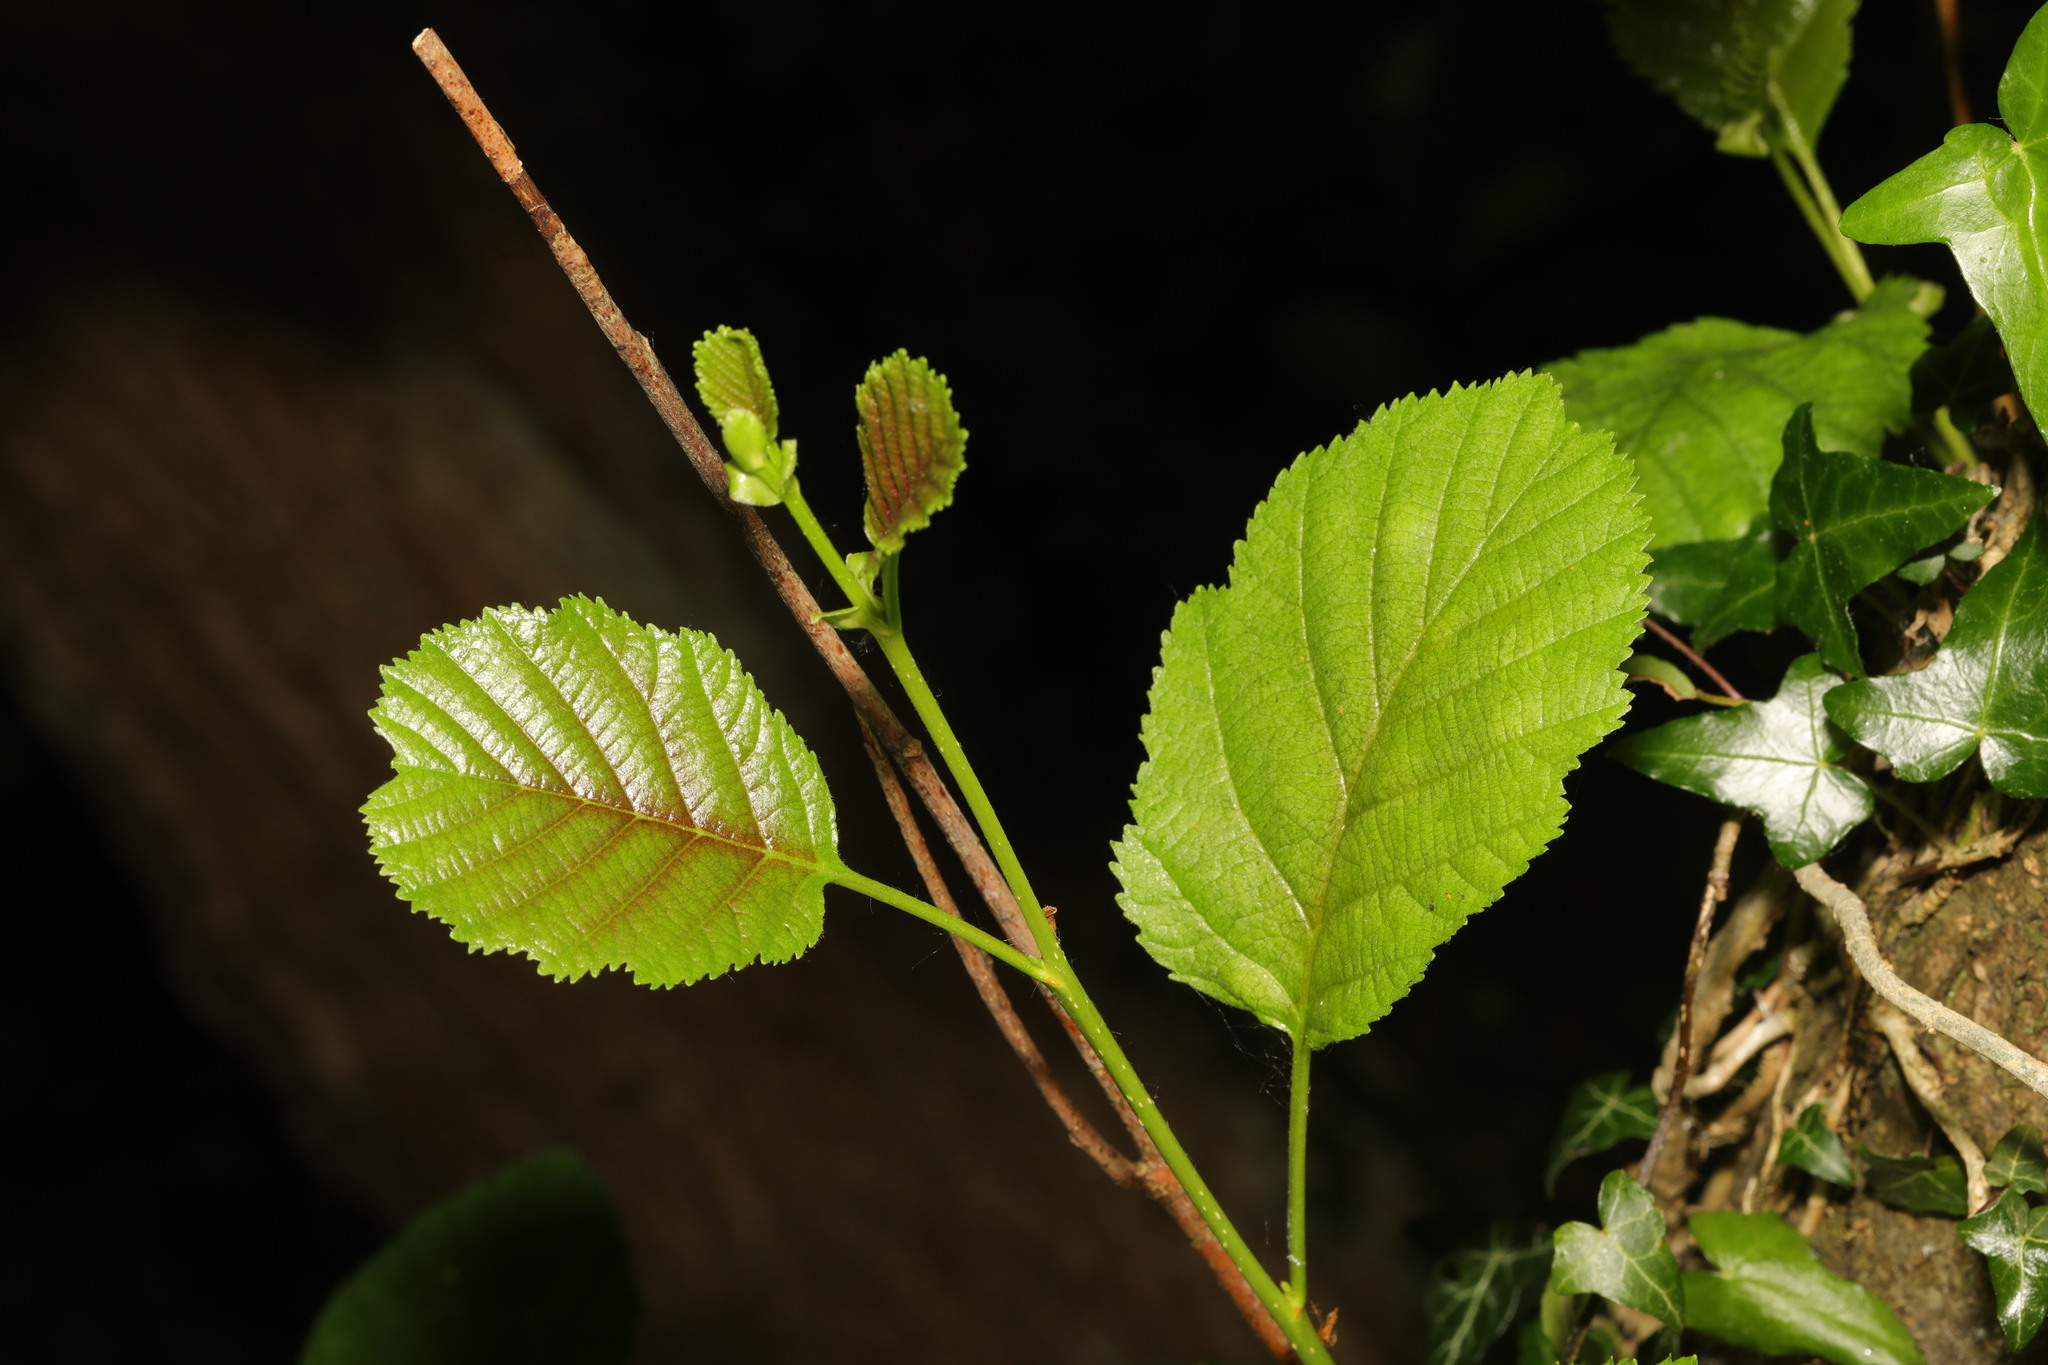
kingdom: Plantae
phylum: Tracheophyta
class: Magnoliopsida
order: Fagales
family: Betulaceae
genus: Alnus
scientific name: Alnus glutinosa
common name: Black alder
